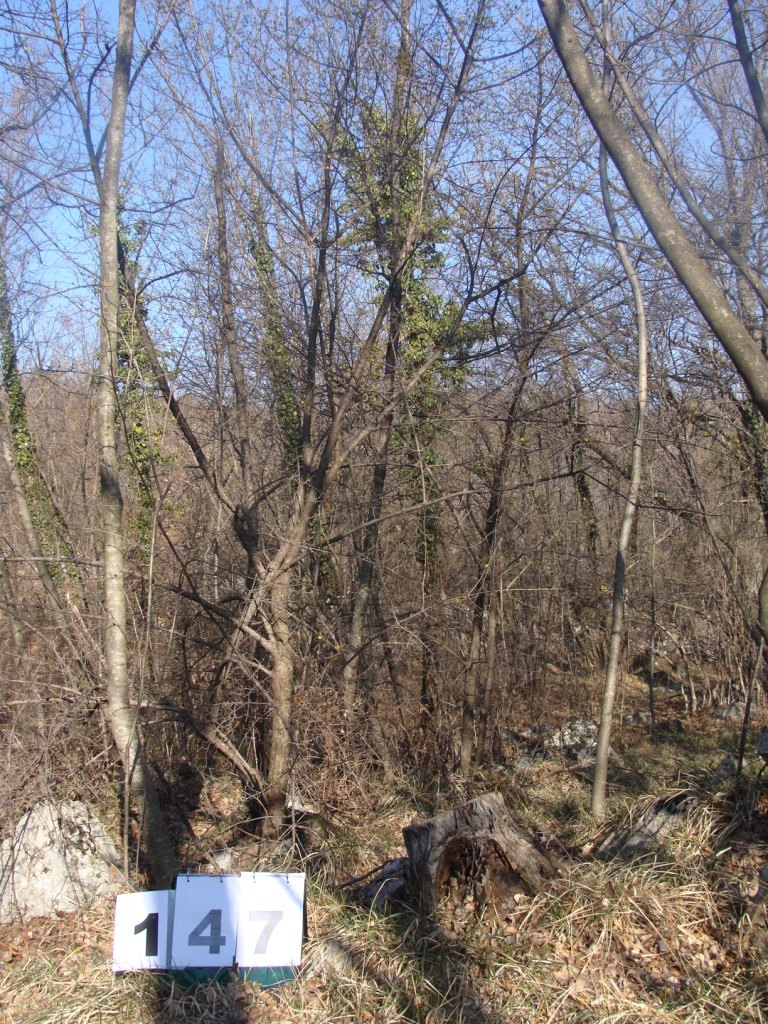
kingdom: Plantae
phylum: Tracheophyta
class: Magnoliopsida
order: Cornales
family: Cornaceae
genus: Cornus
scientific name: Cornus mas
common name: Cornelian-cherry
